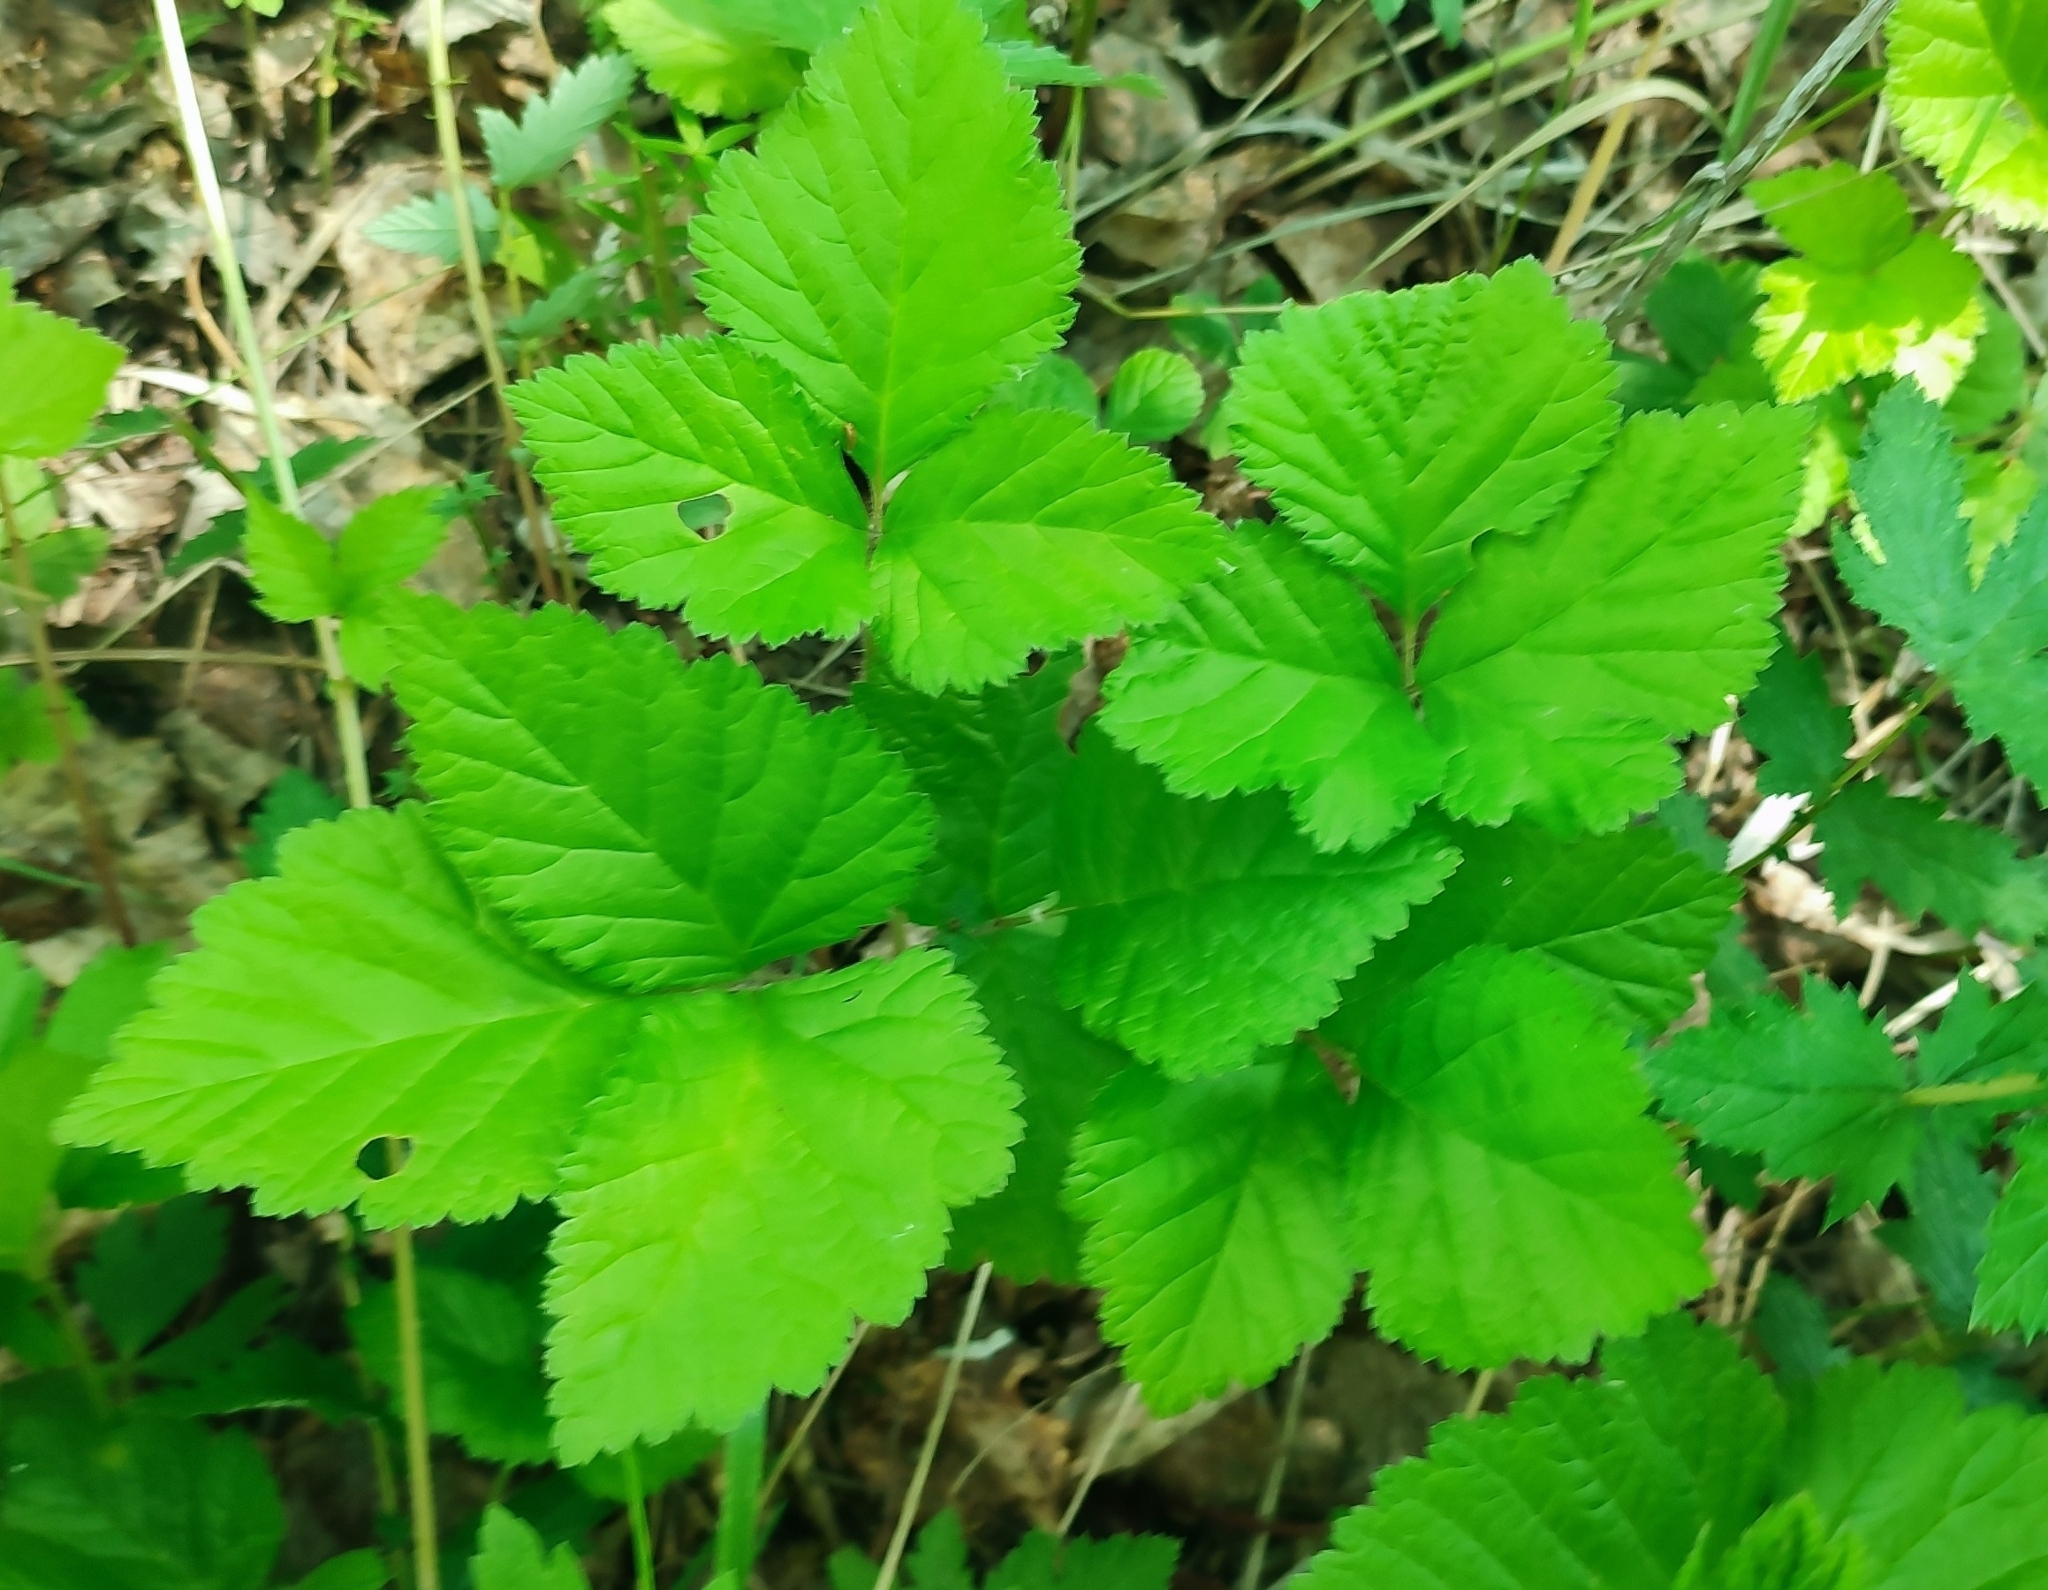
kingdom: Plantae
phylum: Tracheophyta
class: Magnoliopsida
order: Rosales
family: Rosaceae
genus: Rubus
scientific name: Rubus saxatilis
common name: Stone bramble
